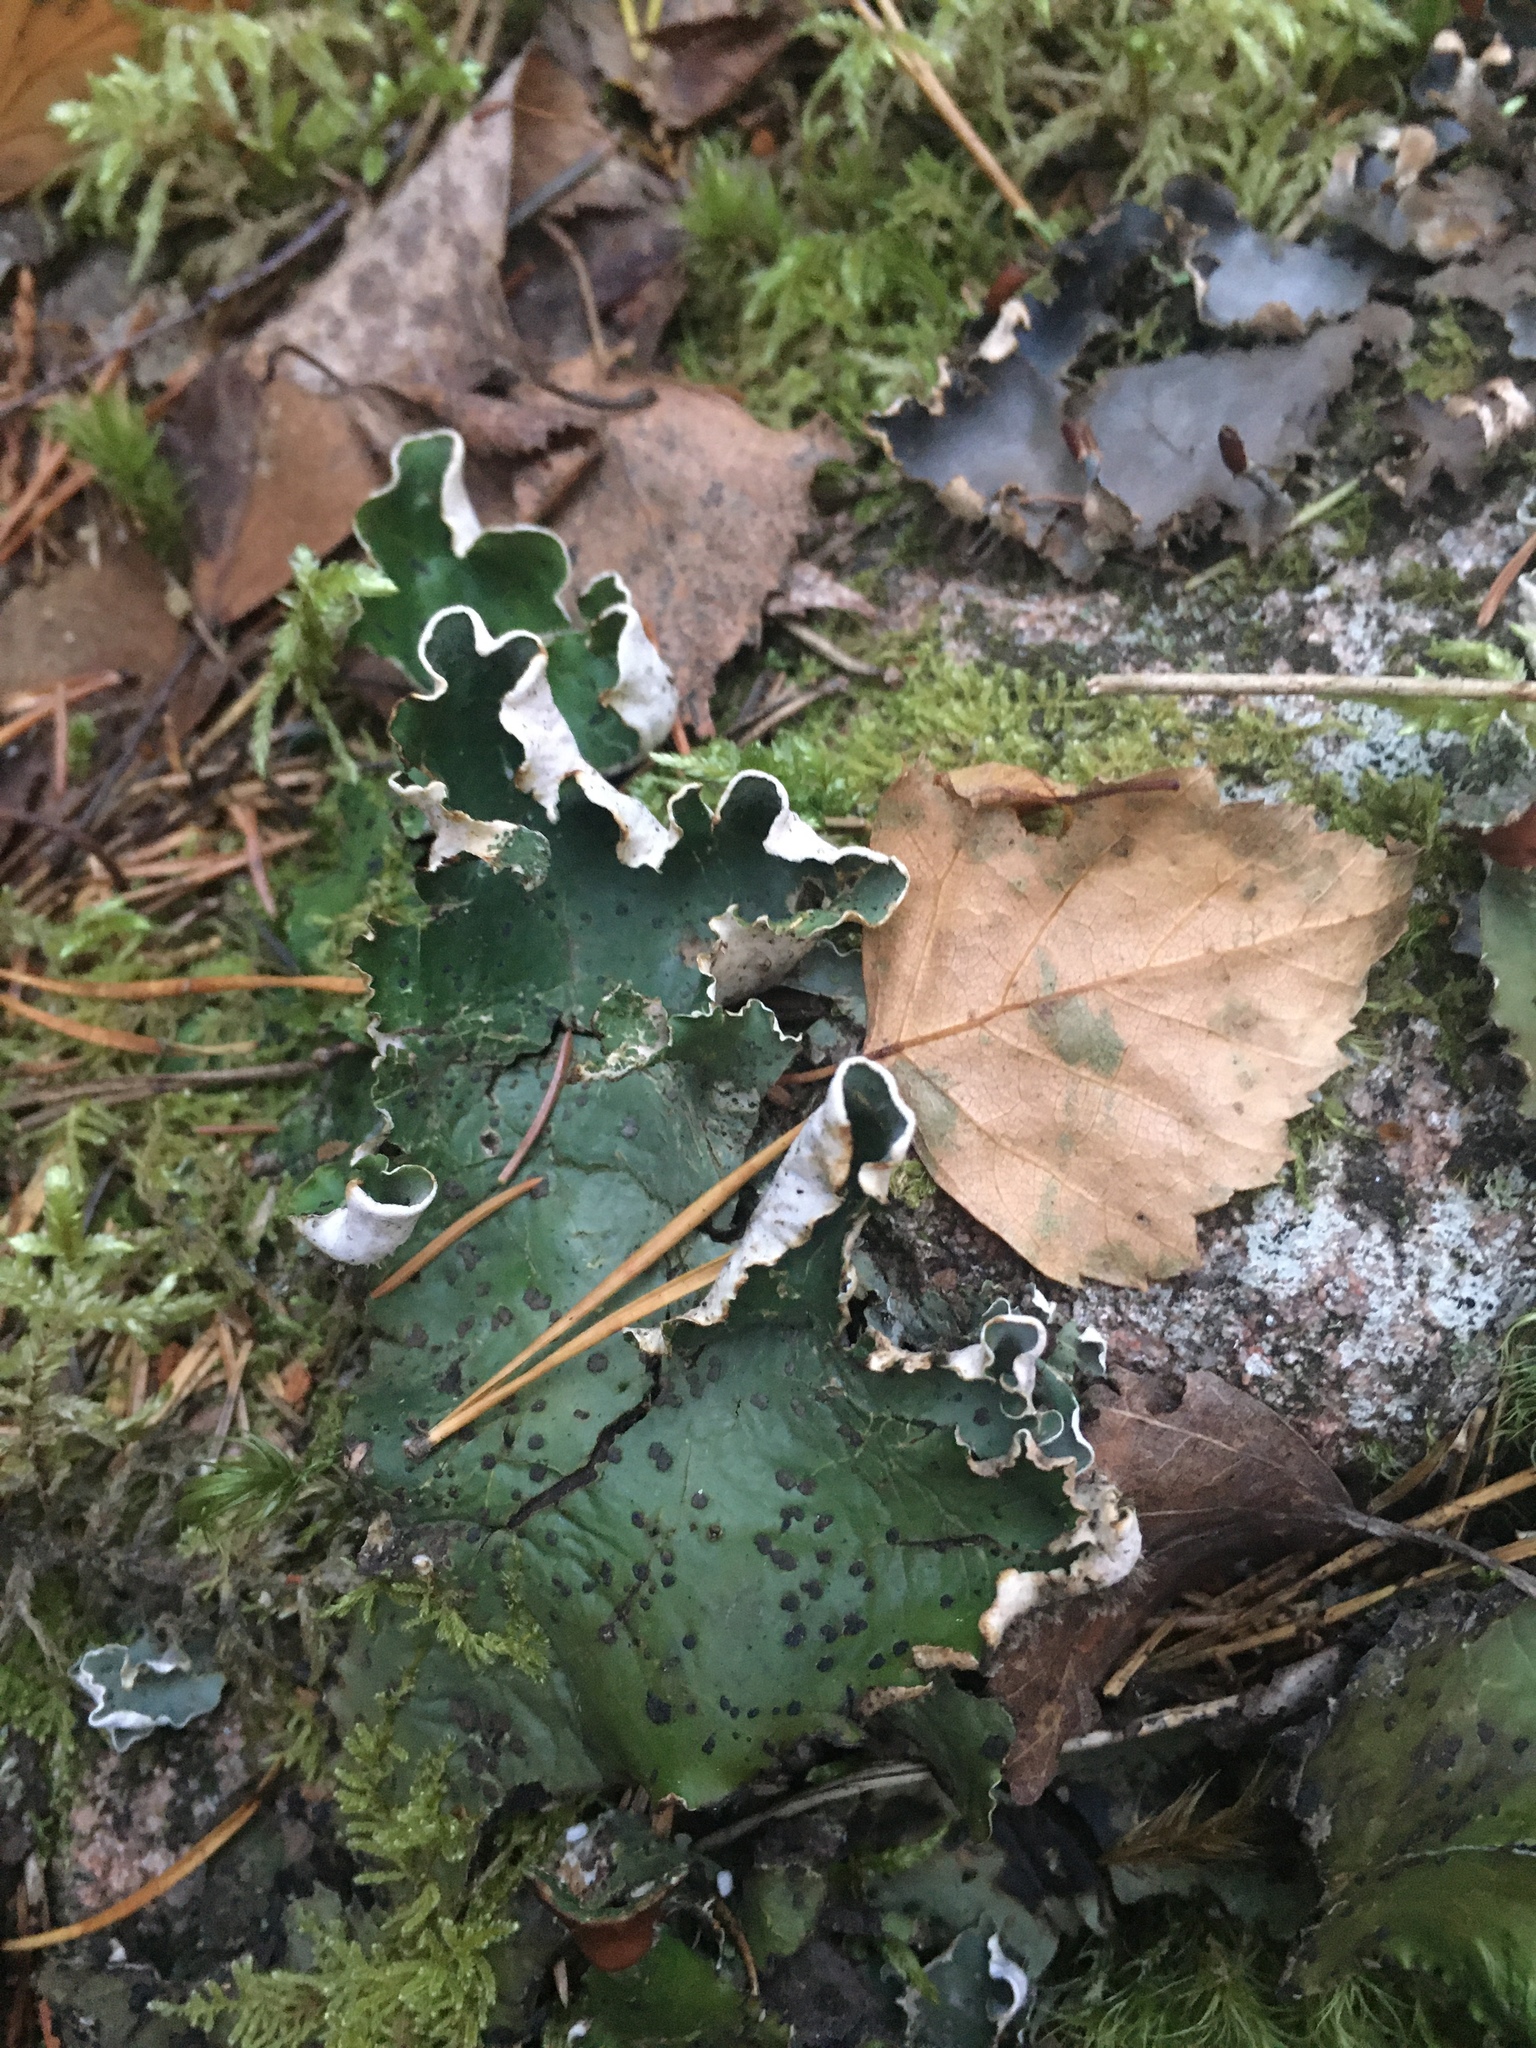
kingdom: Fungi
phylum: Ascomycota
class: Lecanoromycetes
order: Peltigerales
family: Peltigeraceae
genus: Peltigera
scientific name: Peltigera aphthosa
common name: Common freckle pelt lichen
